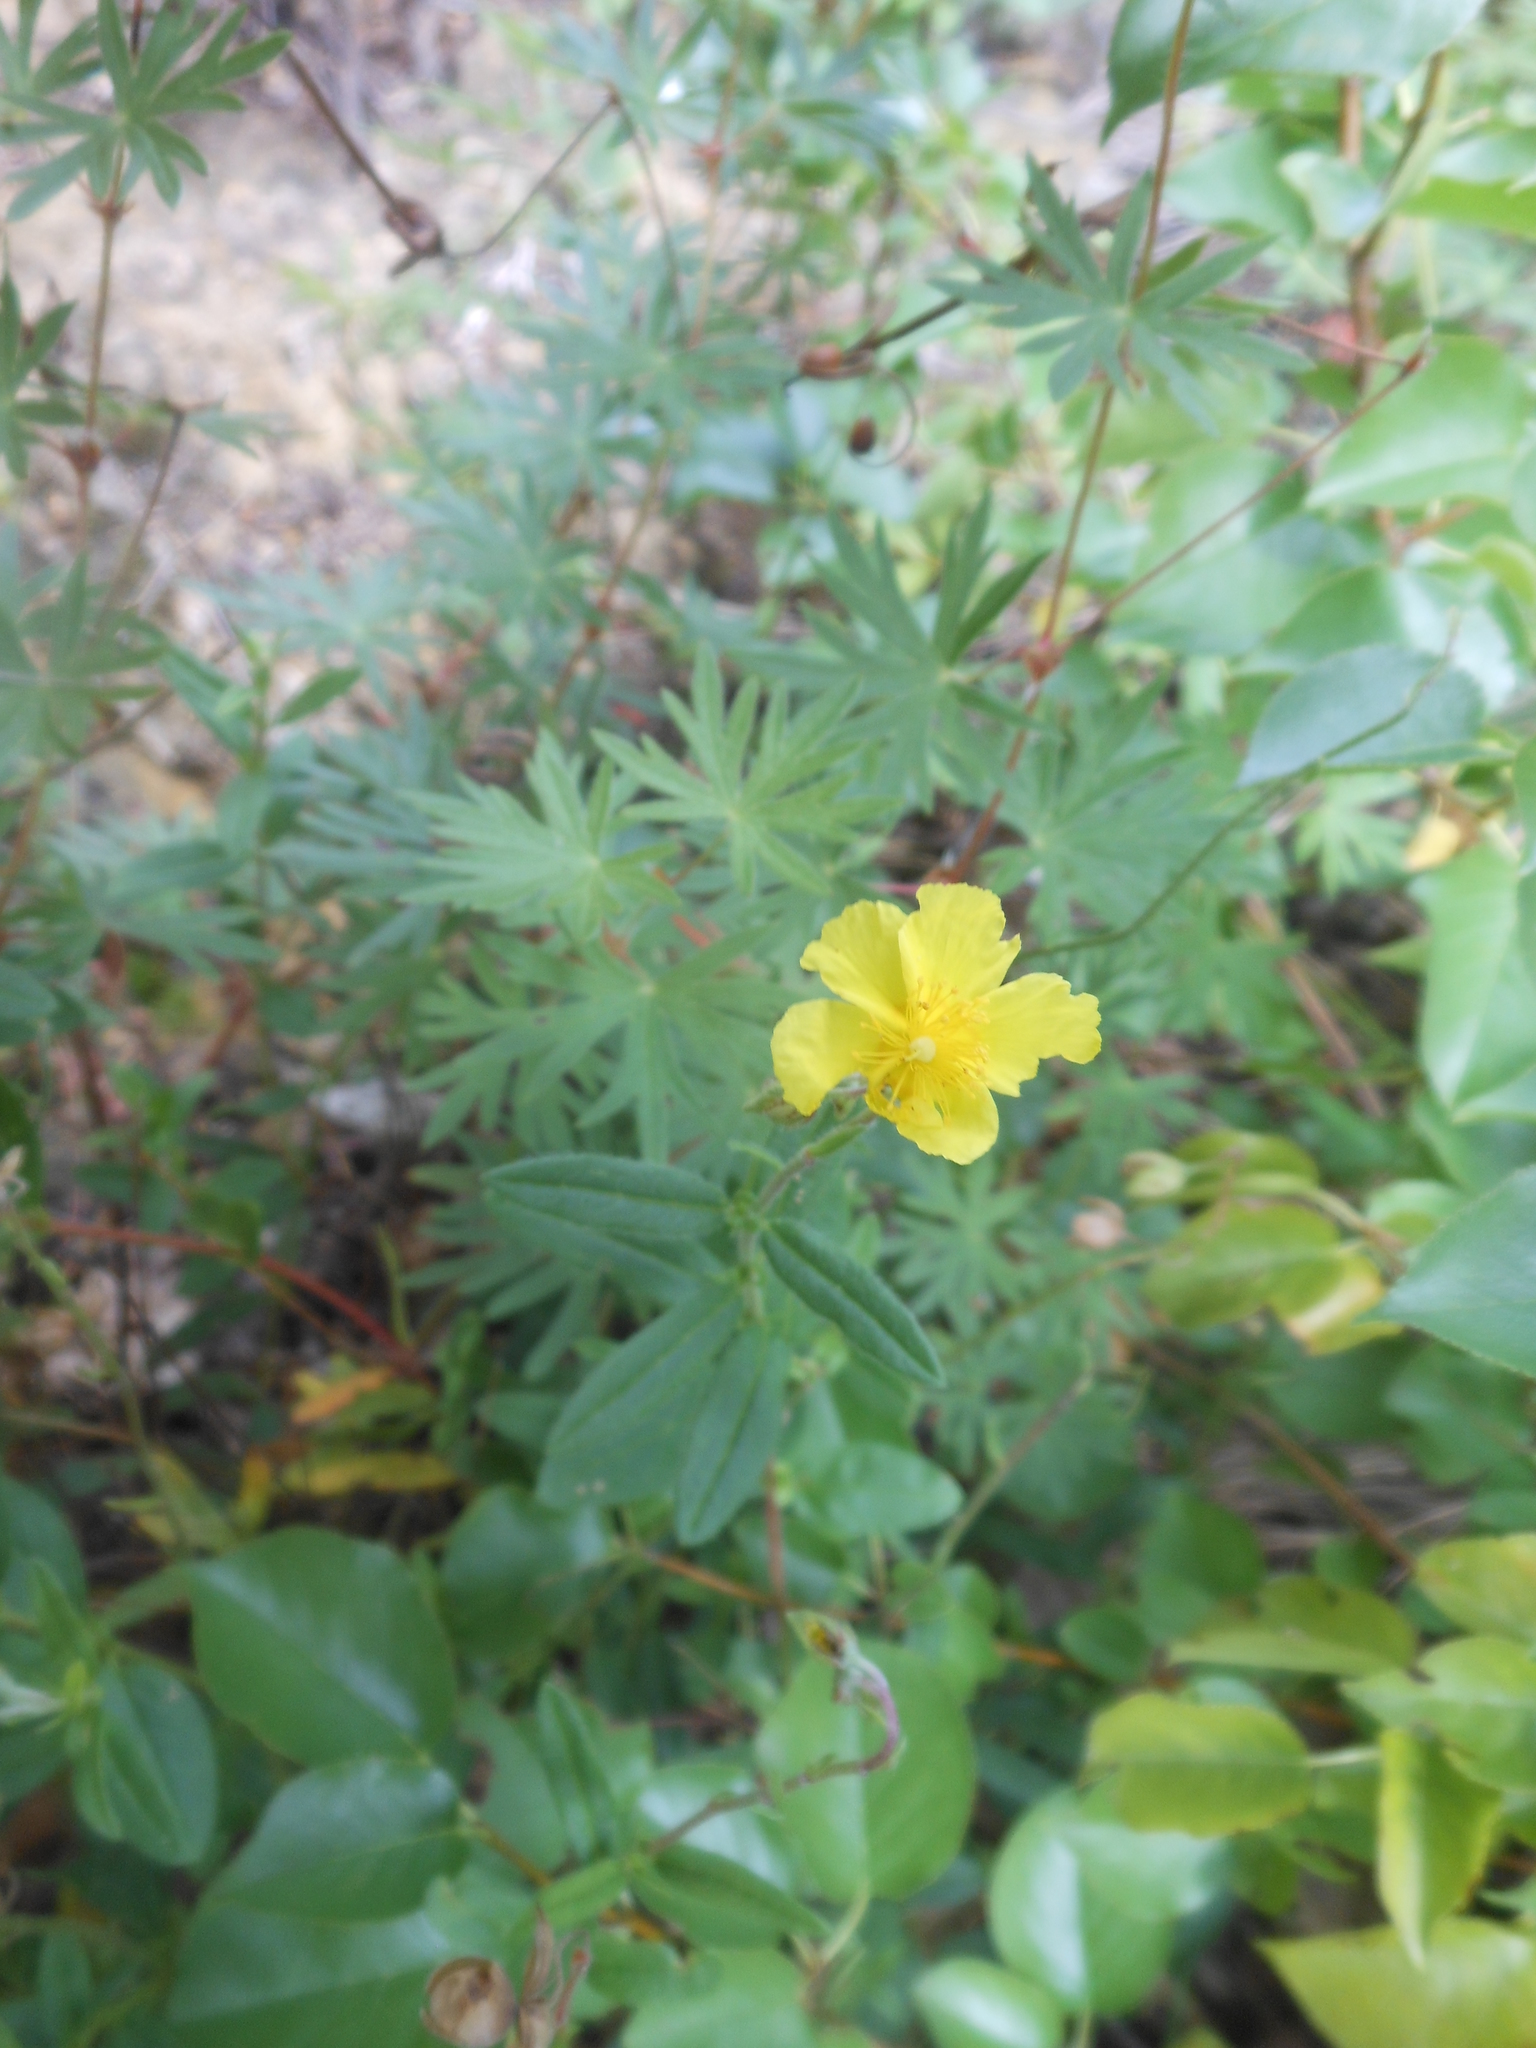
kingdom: Plantae
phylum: Tracheophyta
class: Magnoliopsida
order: Malvales
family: Cistaceae
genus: Helianthemum
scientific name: Helianthemum nummularium
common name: Common rock-rose
